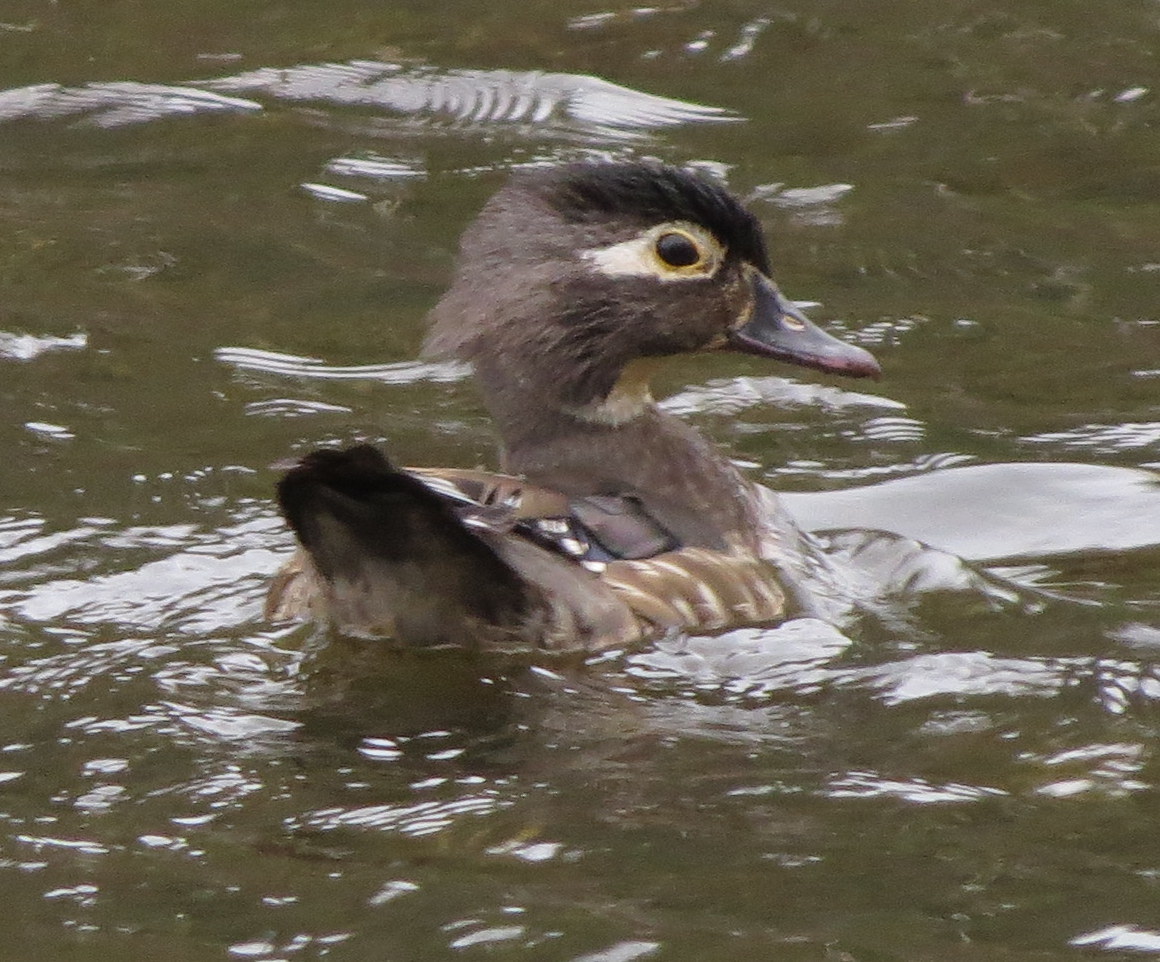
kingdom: Animalia
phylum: Chordata
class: Aves
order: Anseriformes
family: Anatidae
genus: Aix
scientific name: Aix sponsa
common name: Wood duck
